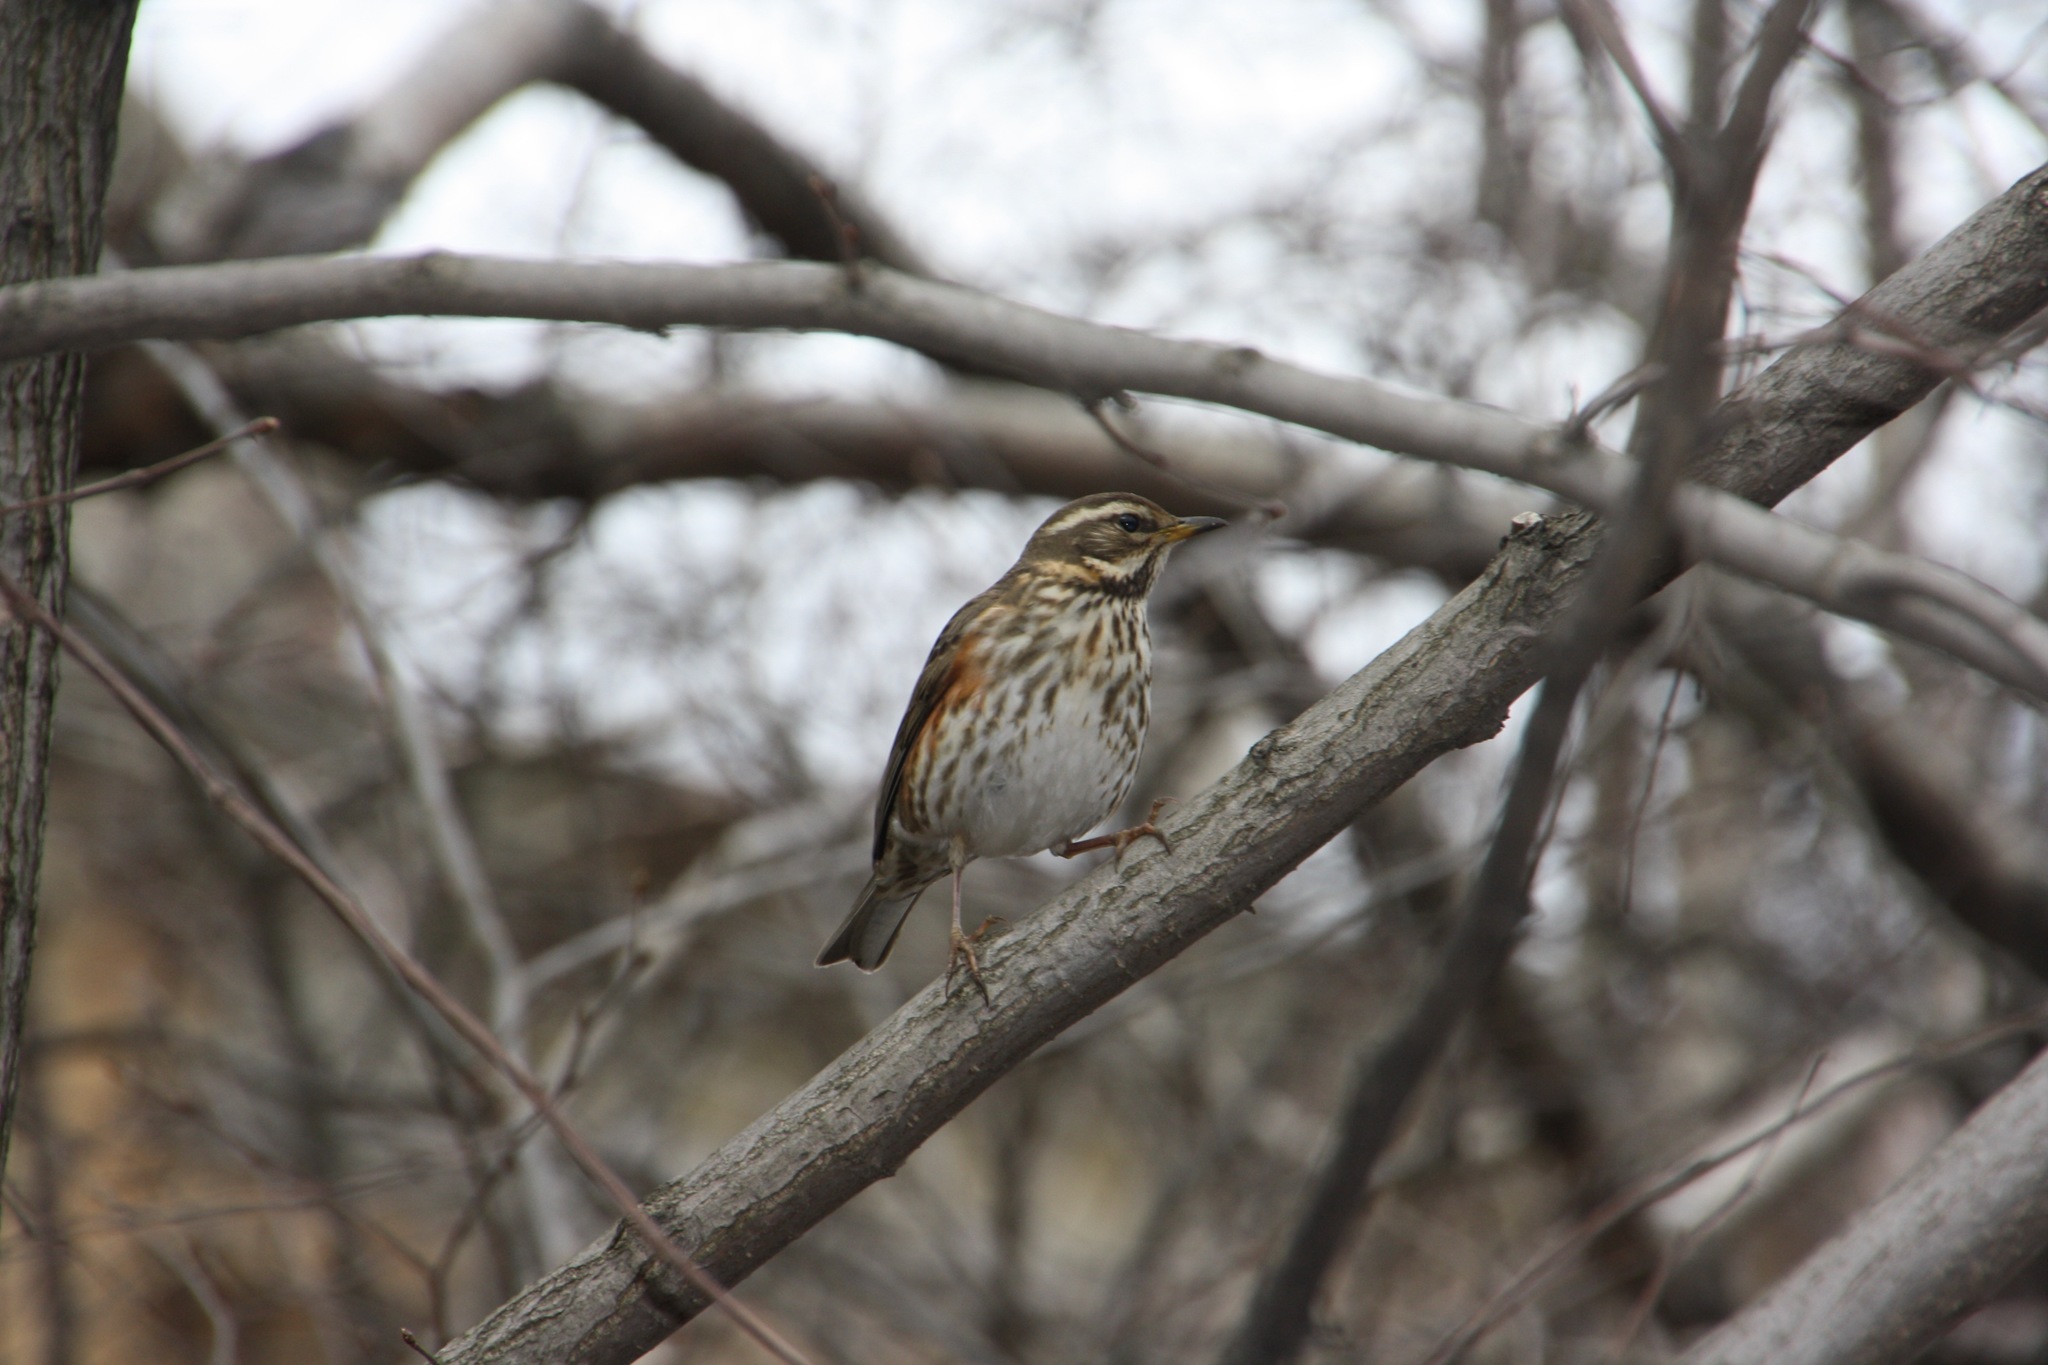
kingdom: Animalia
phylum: Chordata
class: Aves
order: Passeriformes
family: Turdidae
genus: Turdus
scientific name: Turdus iliacus
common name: Redwing
